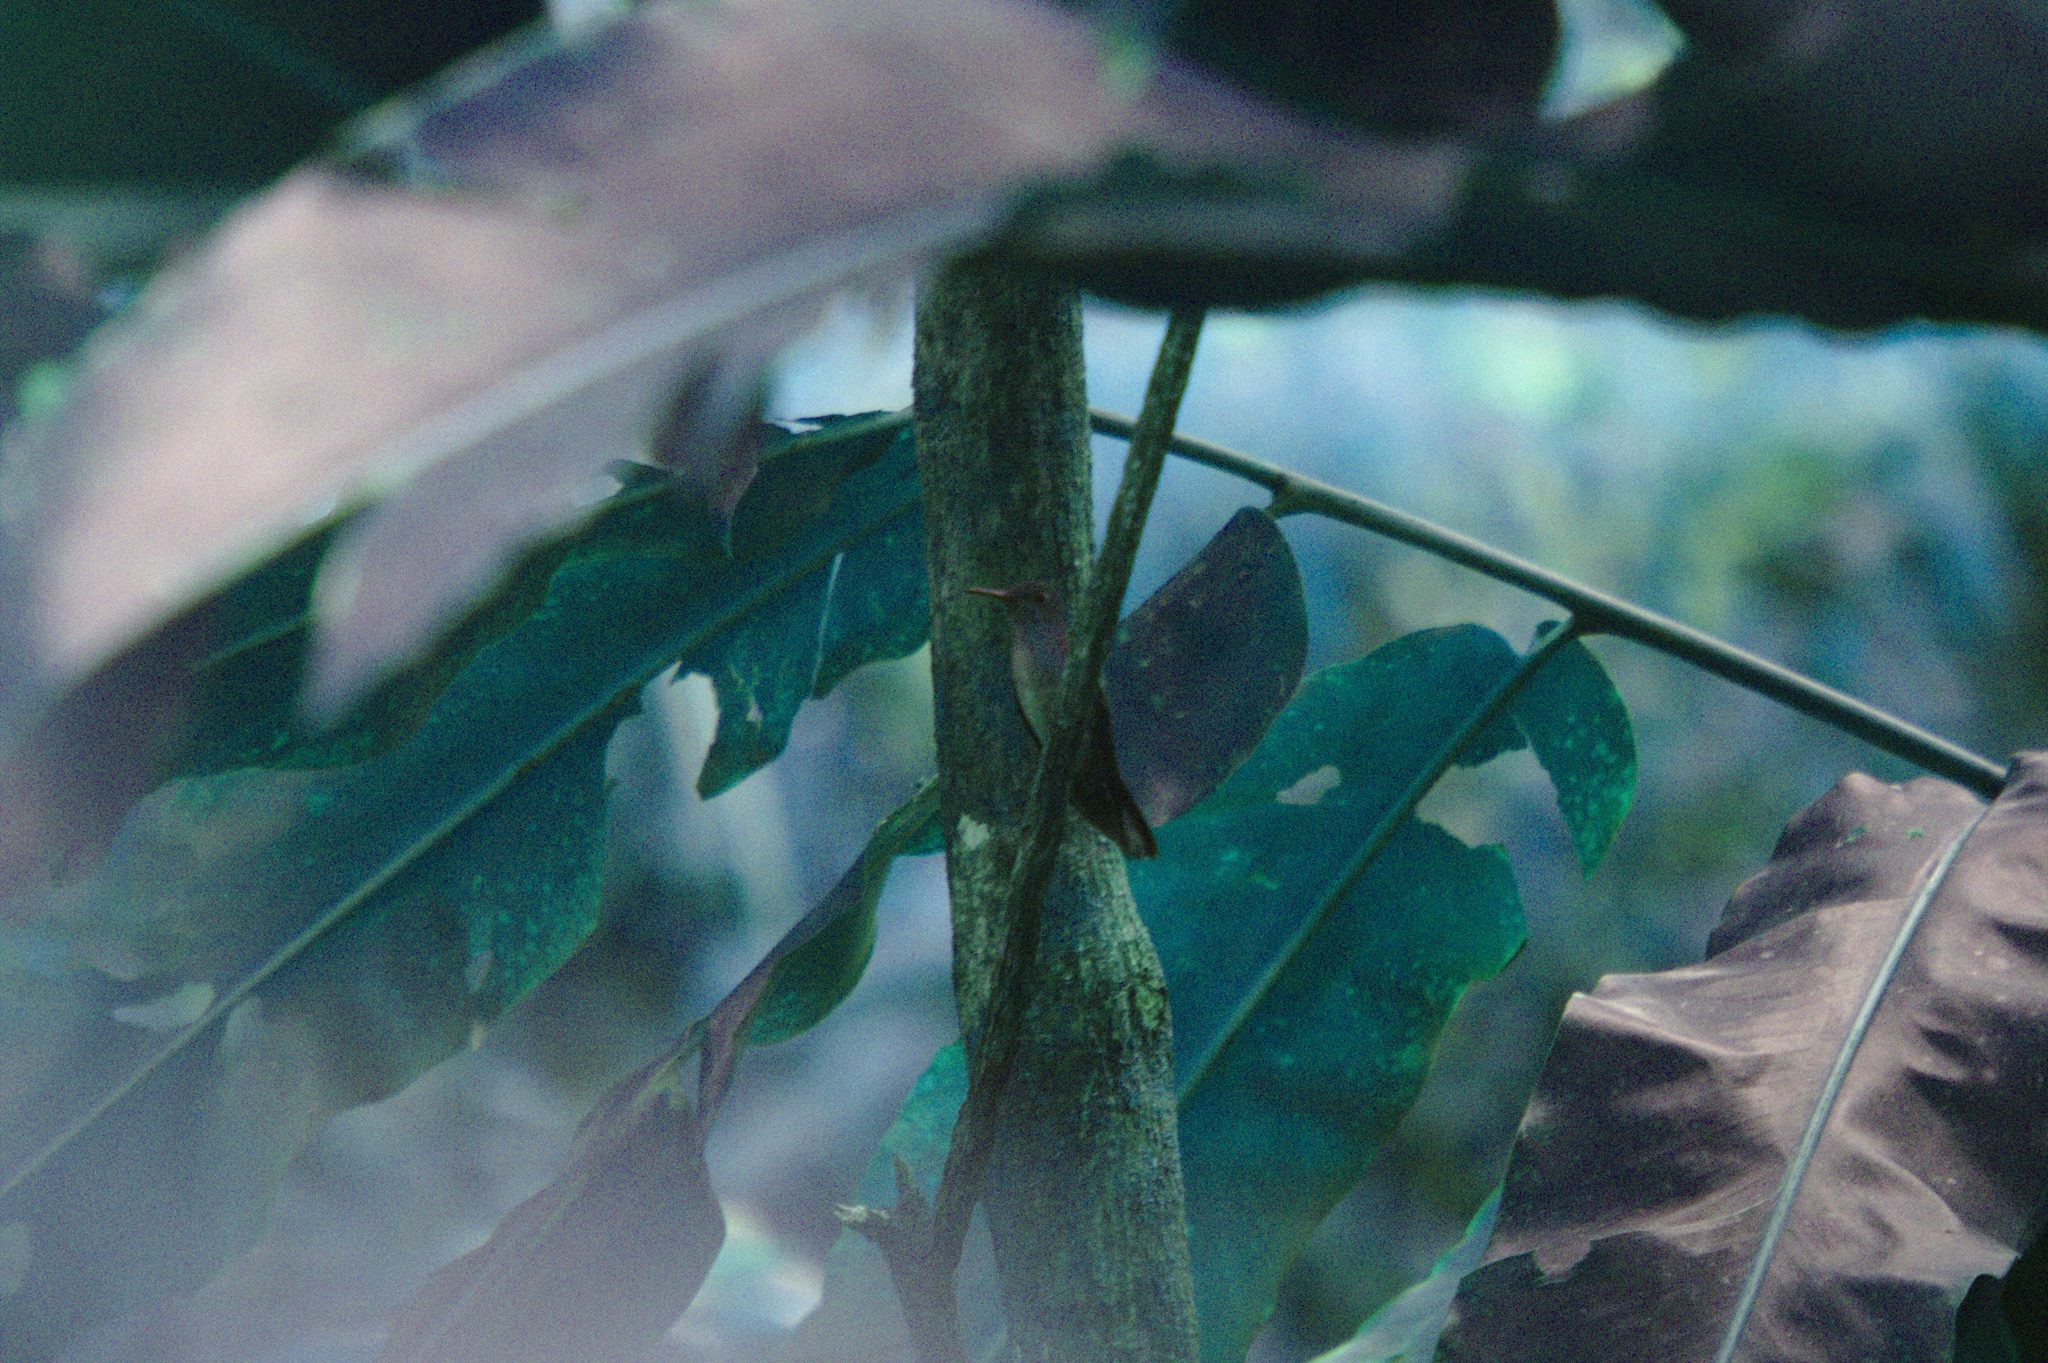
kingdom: Animalia
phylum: Chordata
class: Aves
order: Apodiformes
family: Trochilidae
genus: Phaeochroa
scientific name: Phaeochroa cuvierii
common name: Scaly-breasted hummingbird
